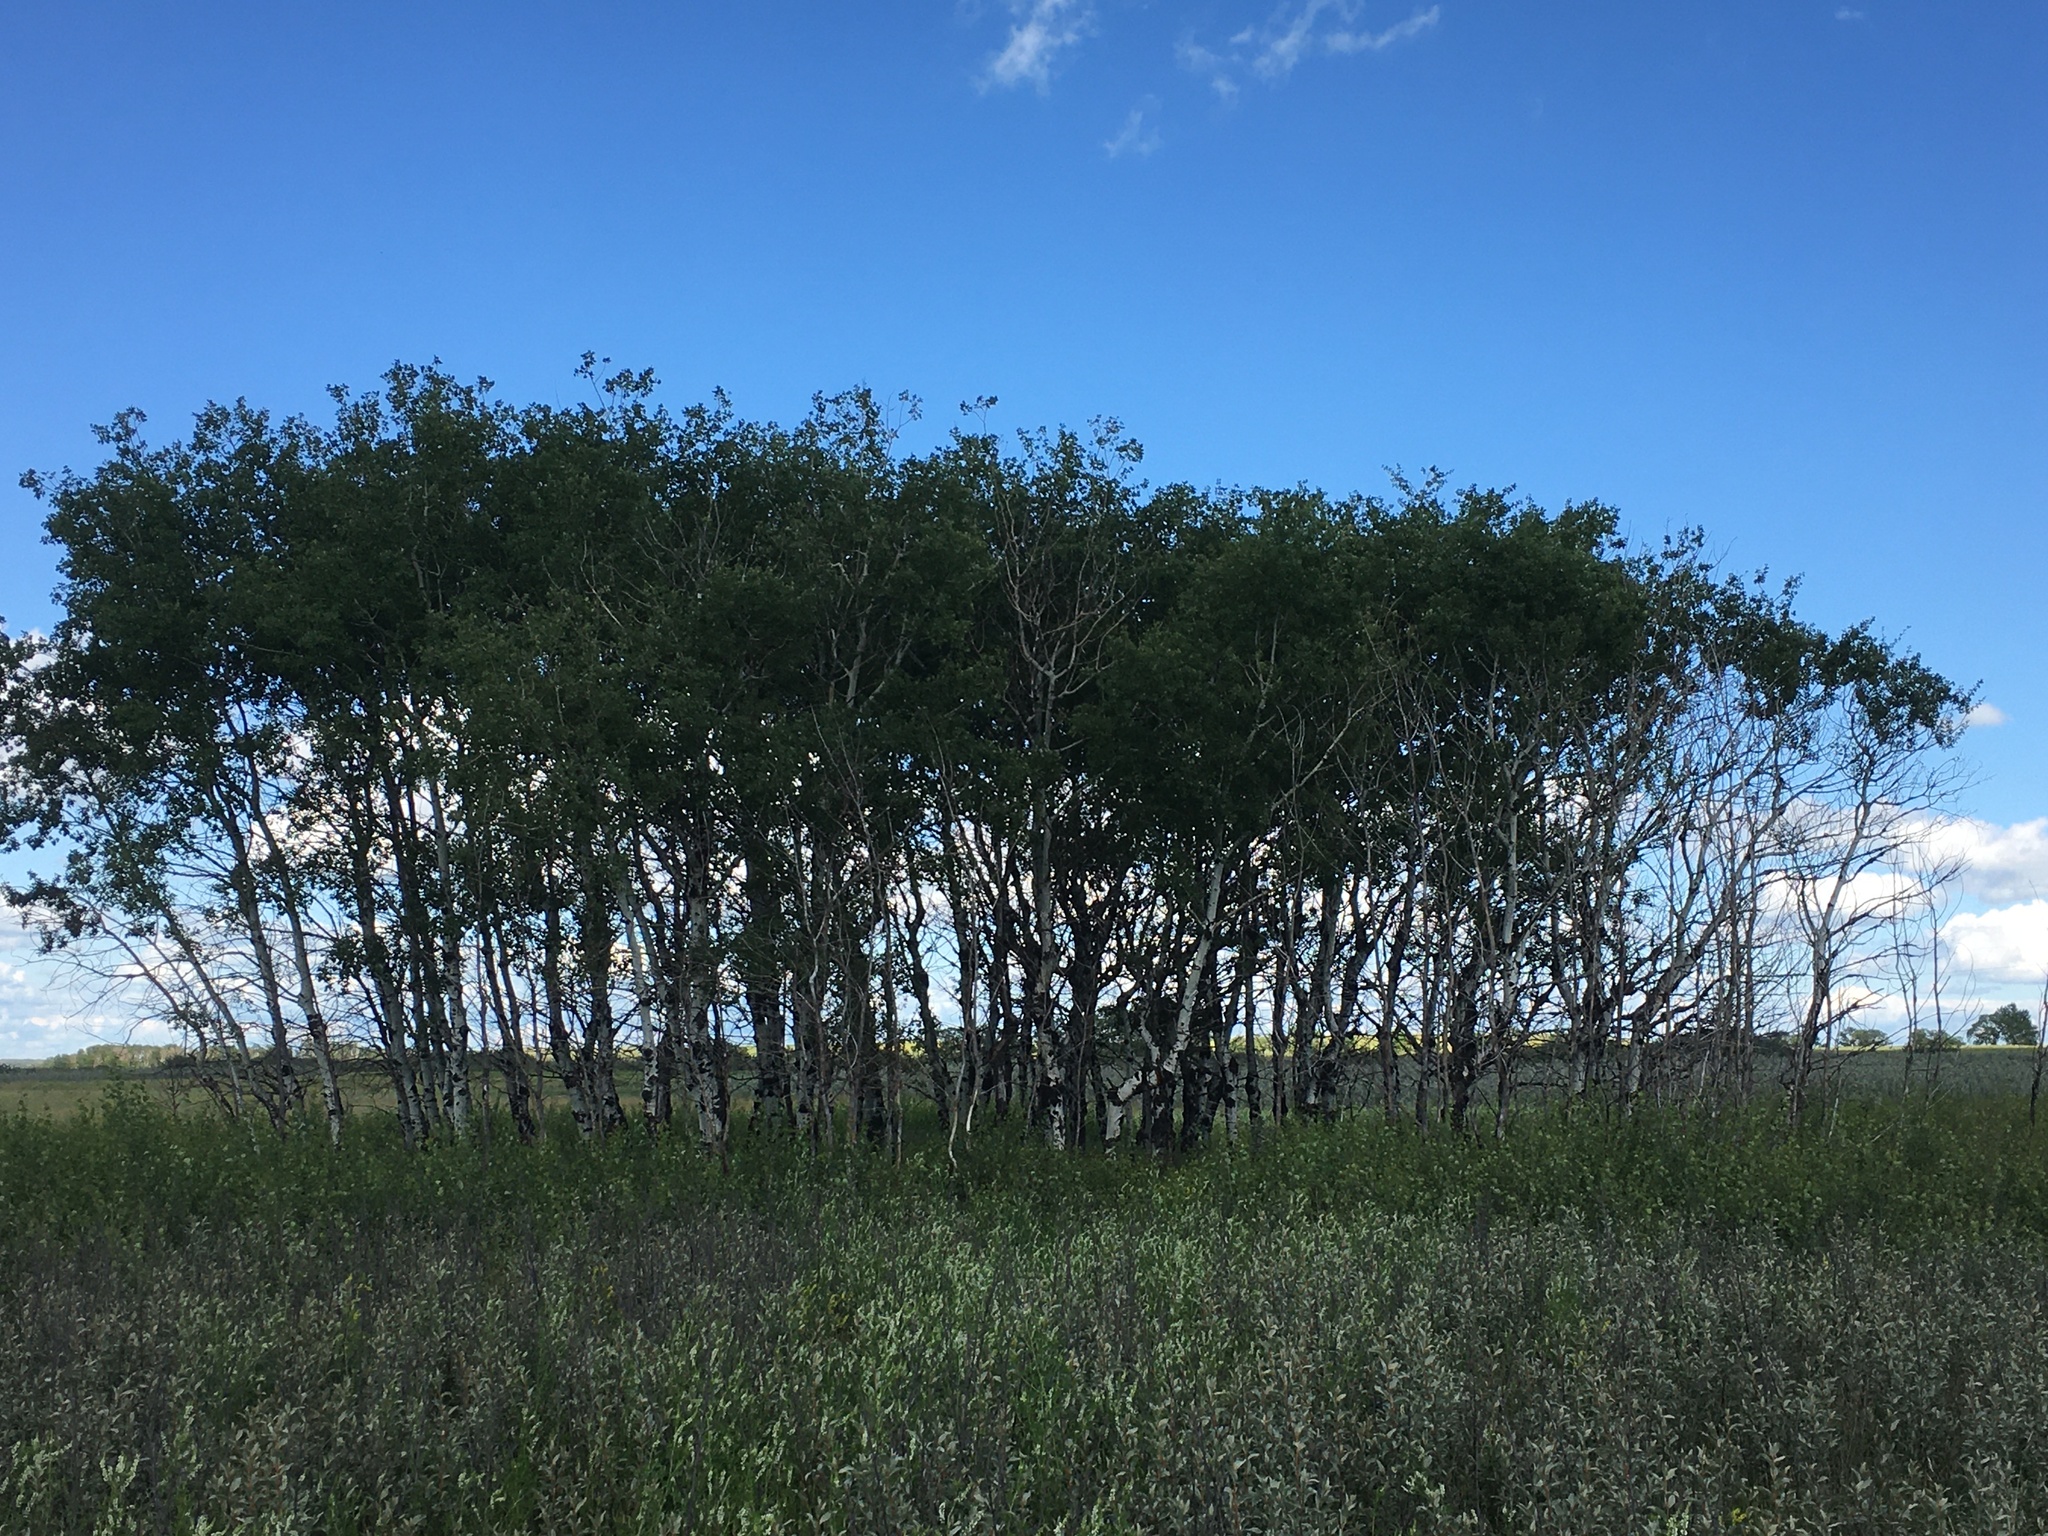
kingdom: Plantae
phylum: Tracheophyta
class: Magnoliopsida
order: Malpighiales
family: Salicaceae
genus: Populus
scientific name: Populus tremuloides
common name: Quaking aspen
